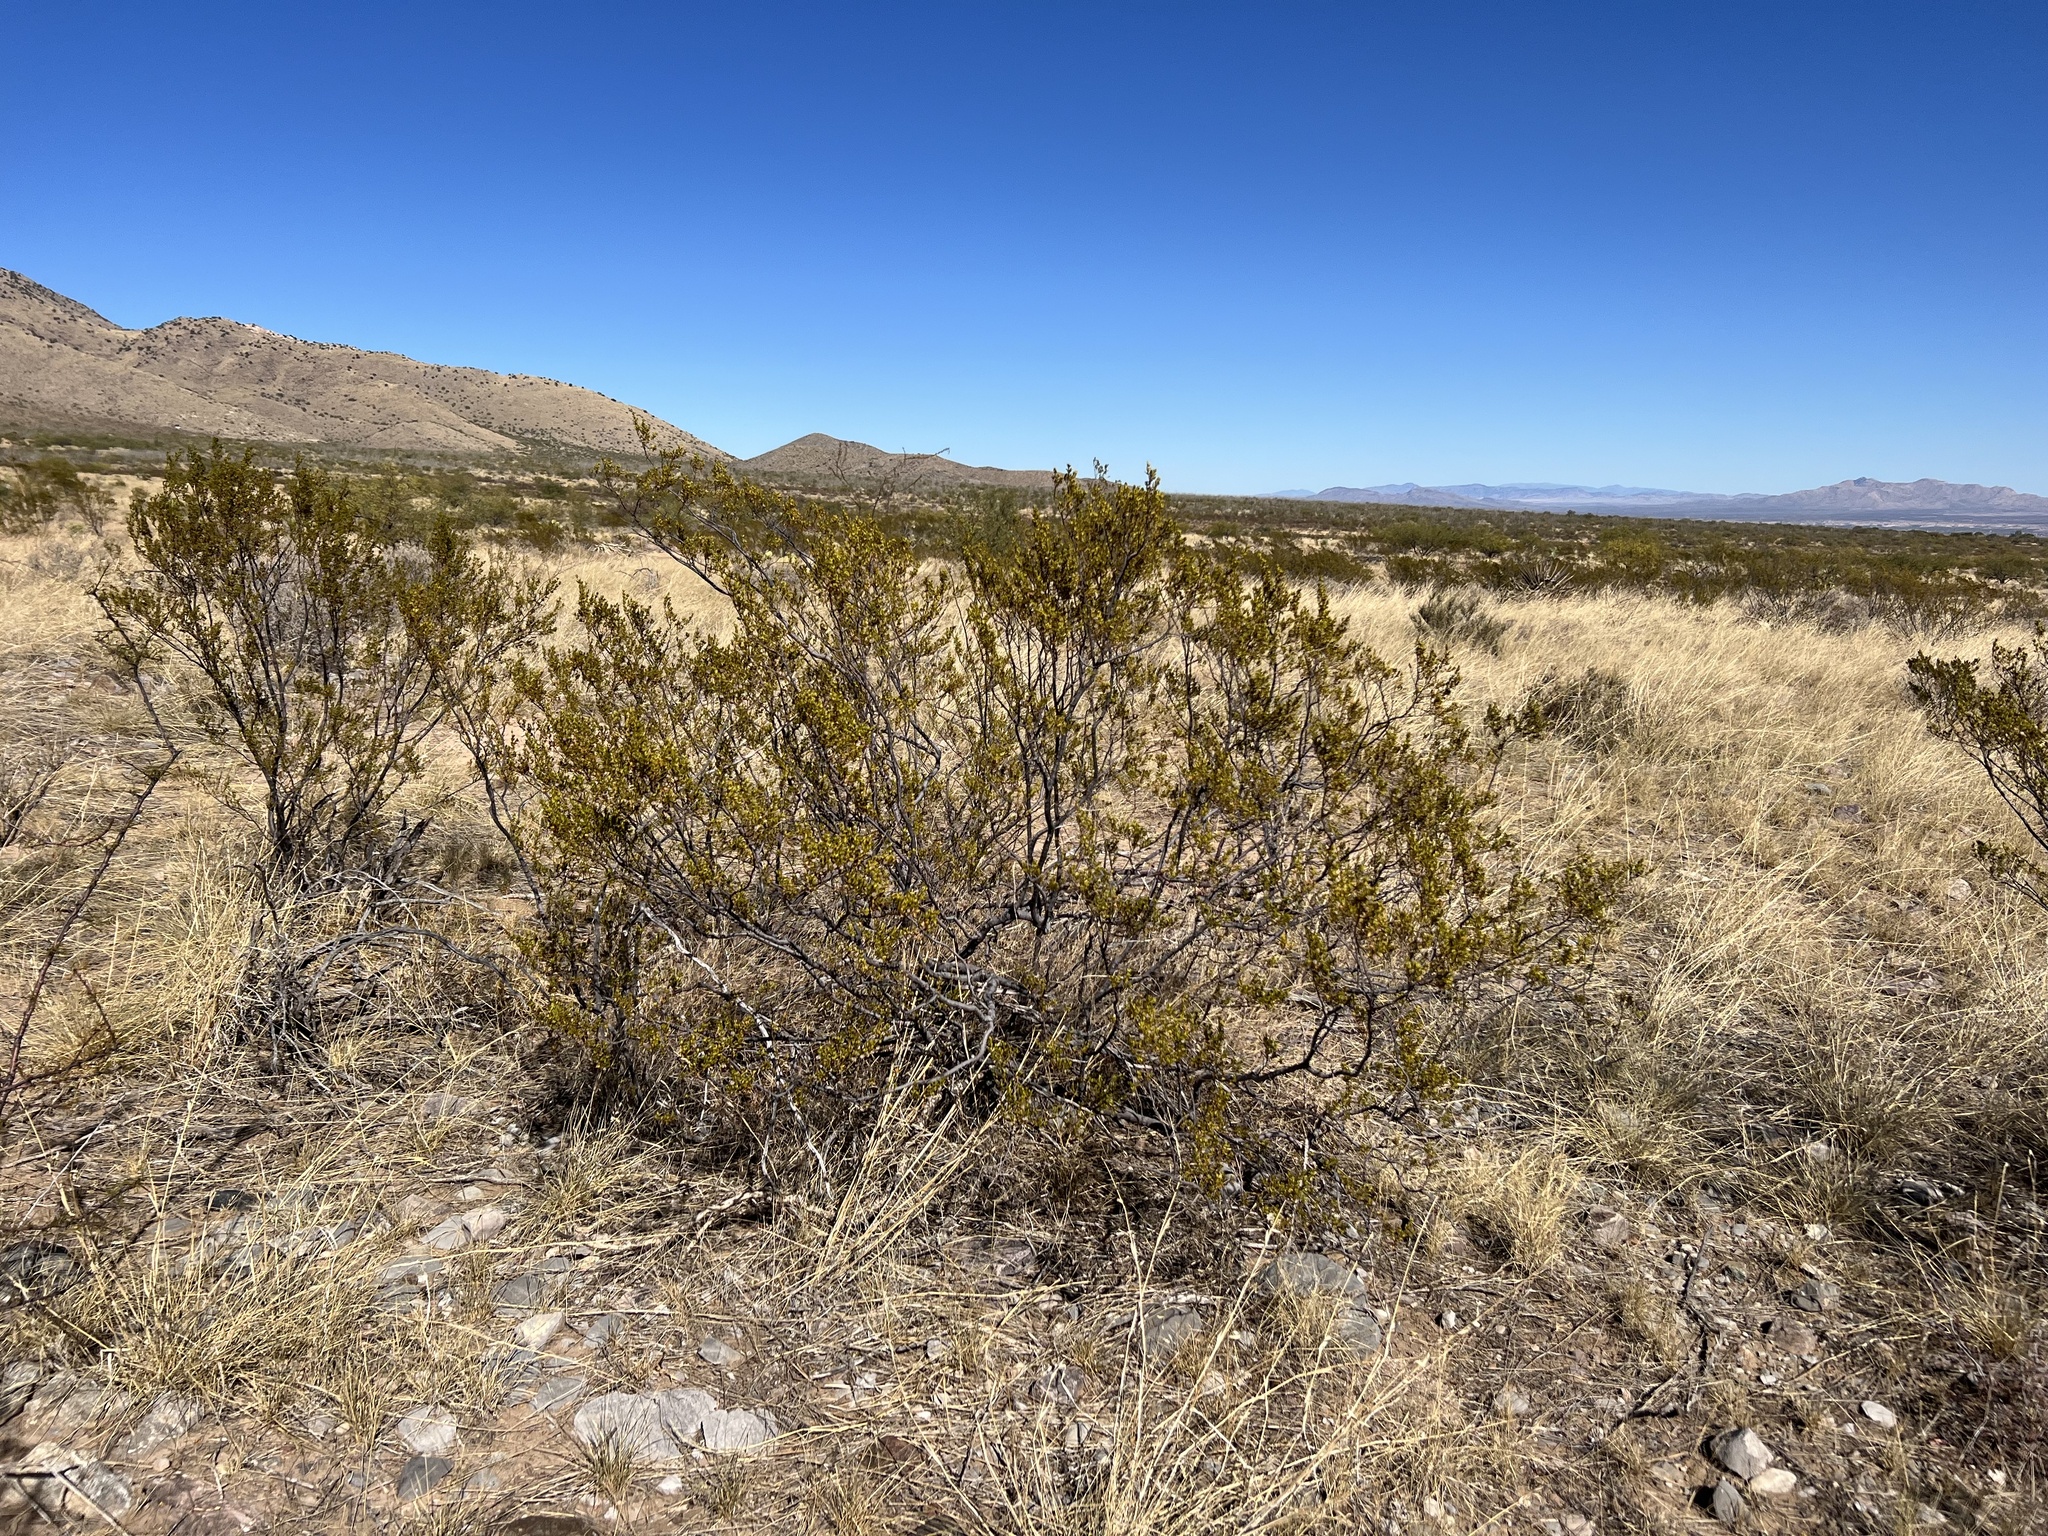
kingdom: Plantae
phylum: Tracheophyta
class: Magnoliopsida
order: Zygophyllales
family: Zygophyllaceae
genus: Larrea
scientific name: Larrea tridentata
